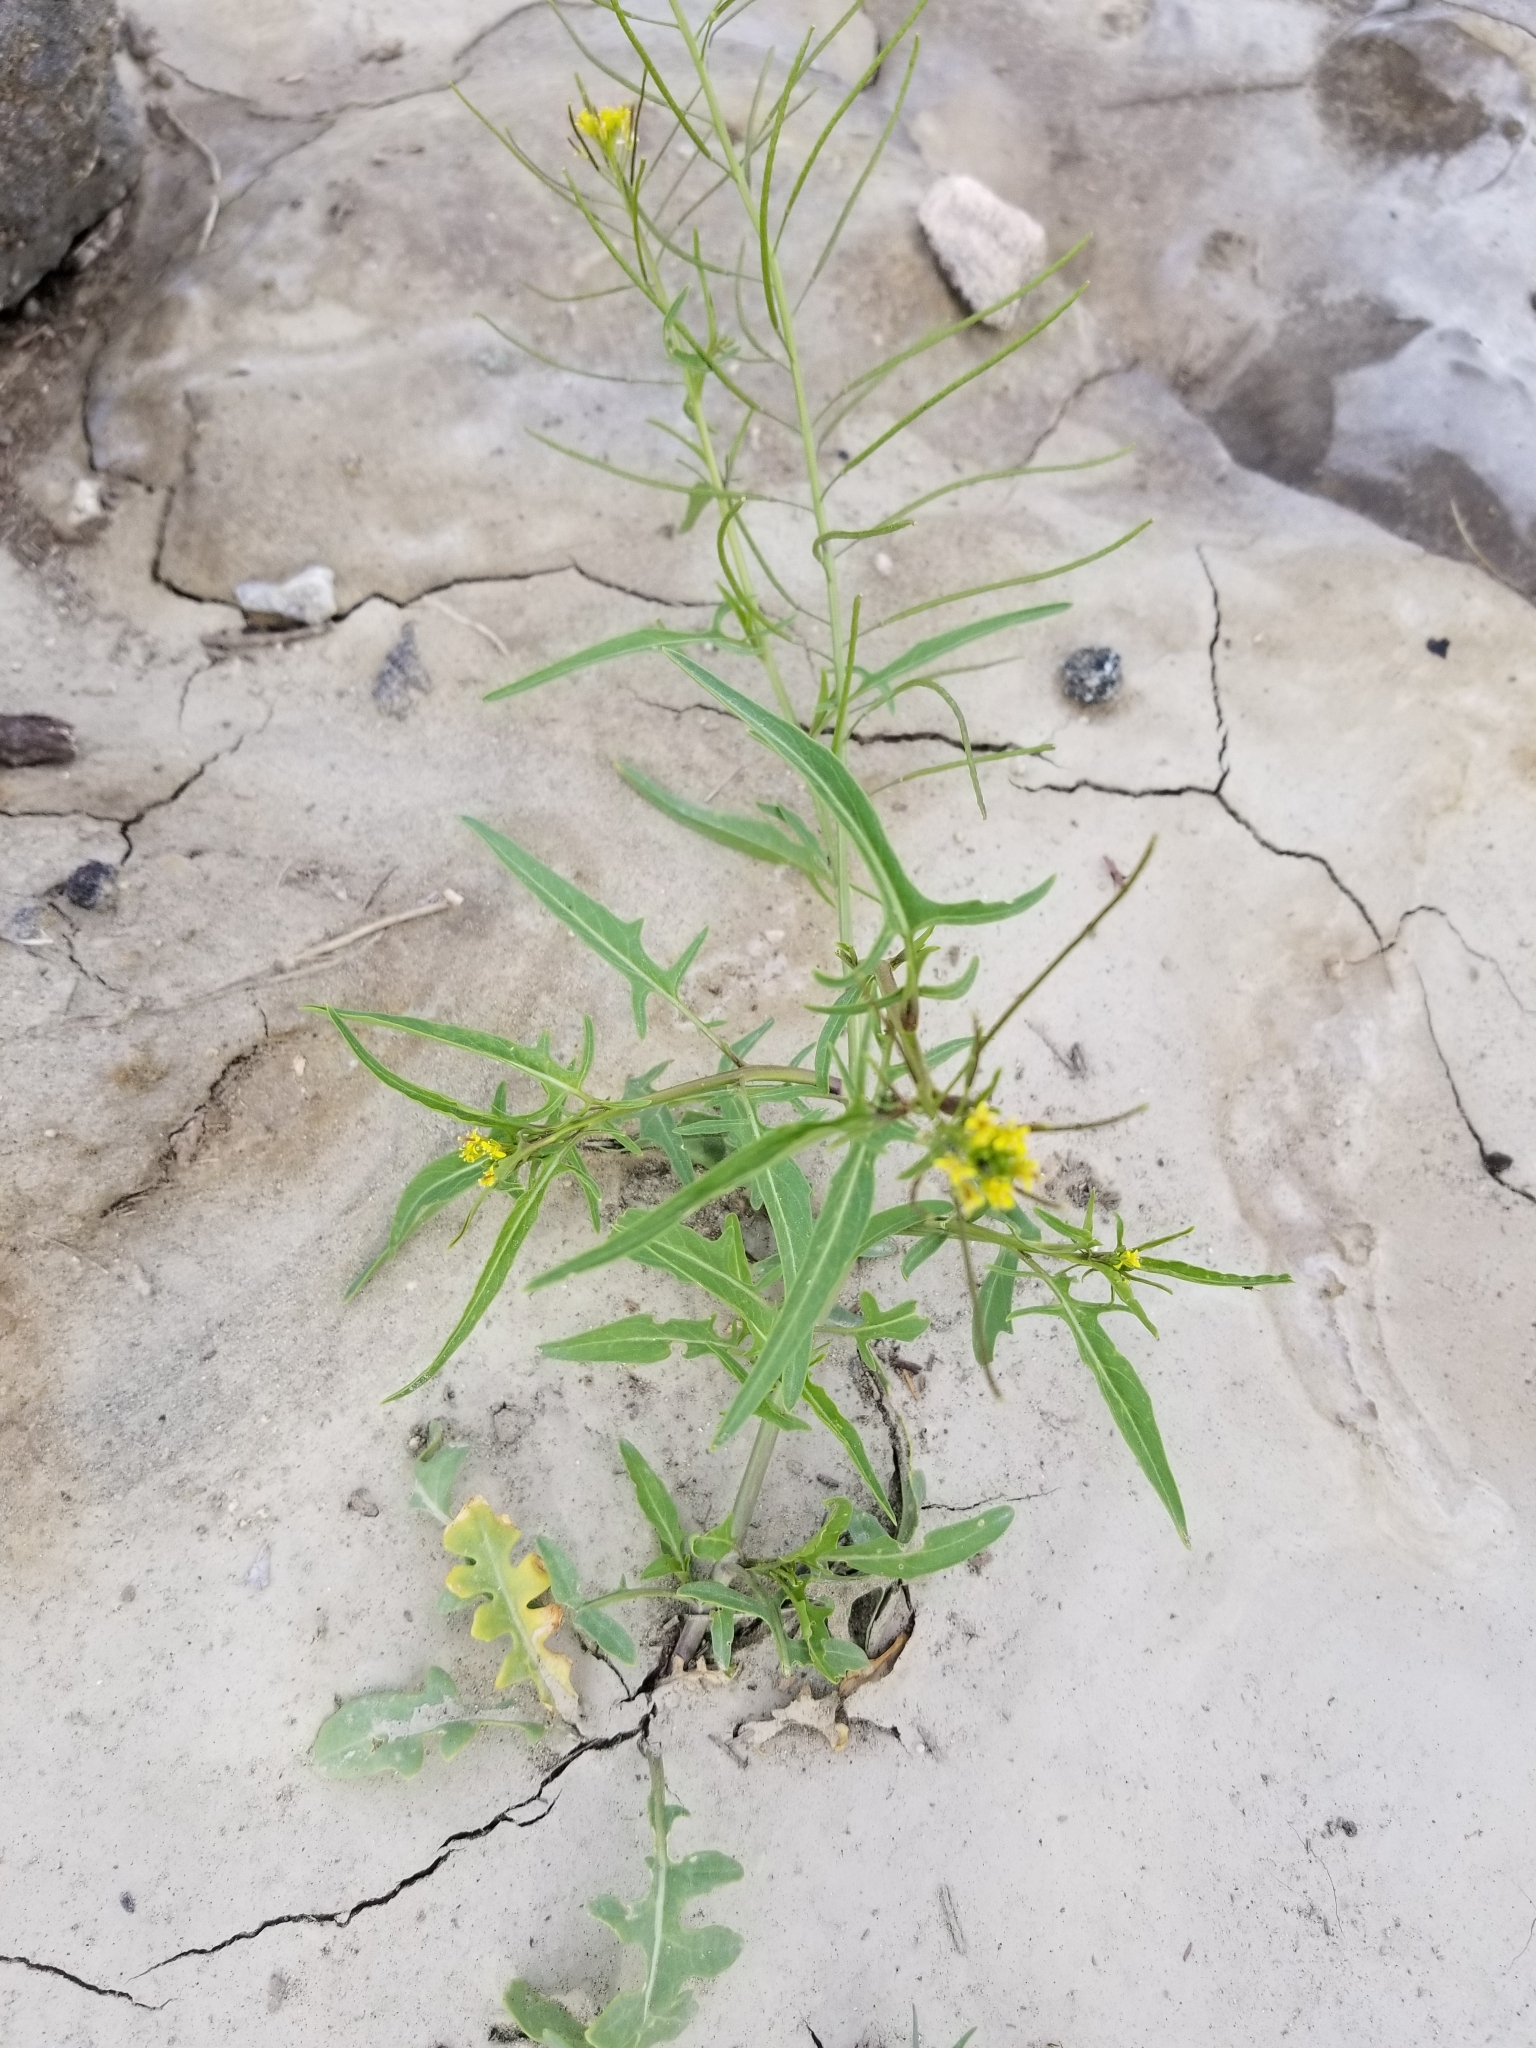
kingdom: Plantae
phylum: Tracheophyta
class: Magnoliopsida
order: Brassicales
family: Brassicaceae
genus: Sisymbrium
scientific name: Sisymbrium irio
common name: London rocket
